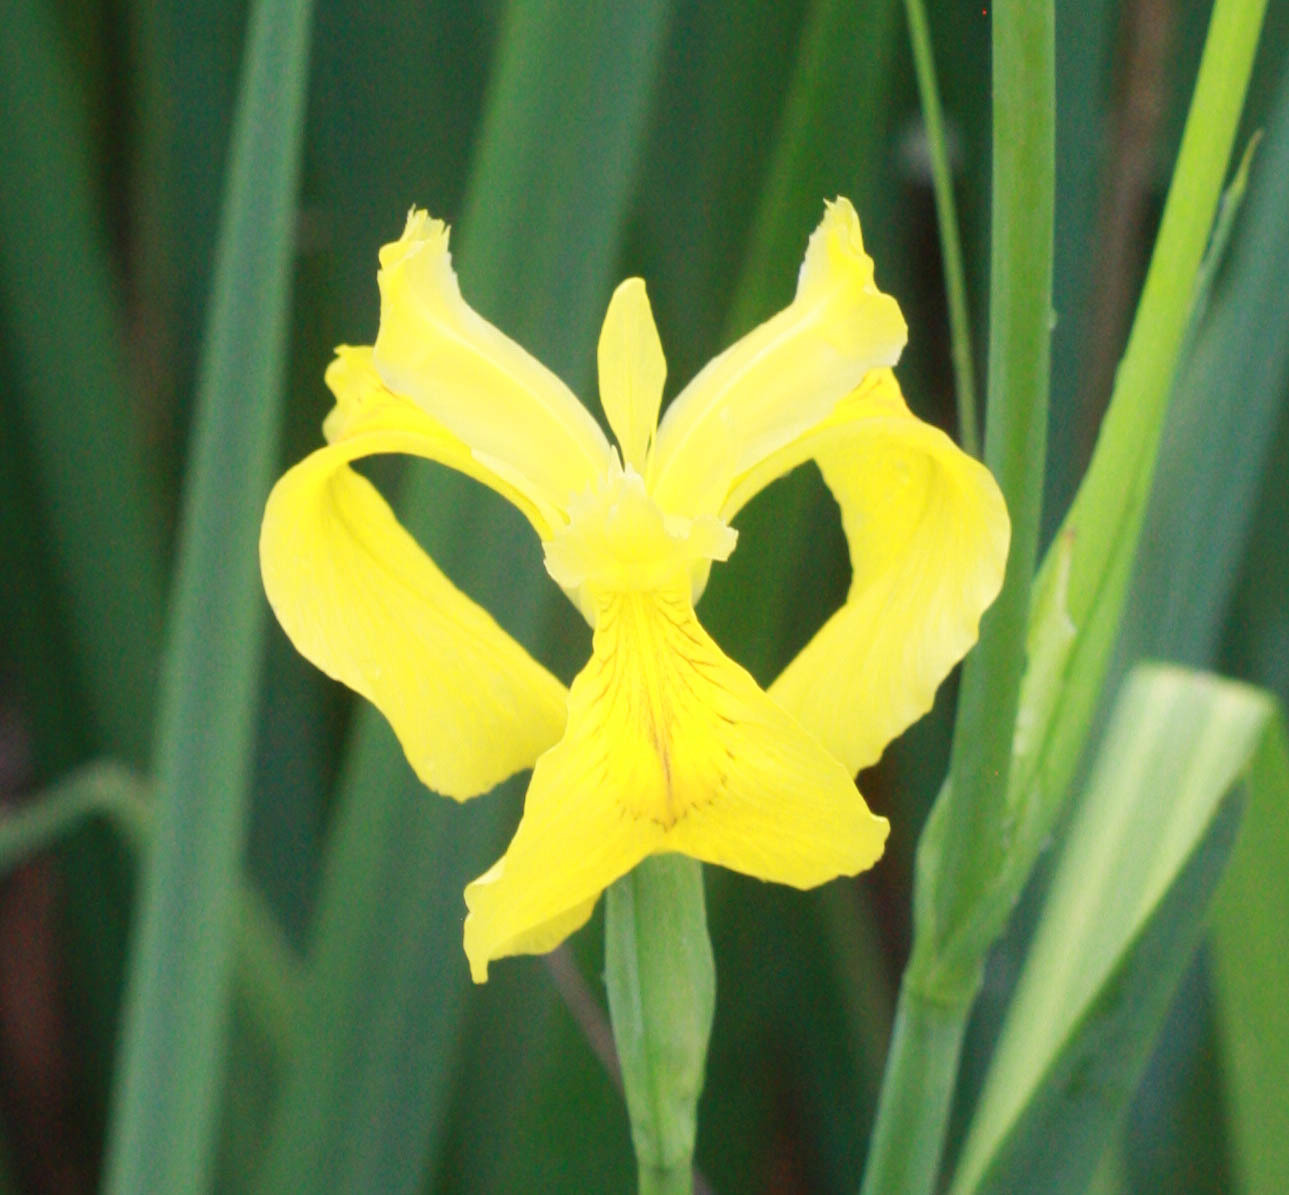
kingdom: Plantae
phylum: Tracheophyta
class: Liliopsida
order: Asparagales
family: Iridaceae
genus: Iris
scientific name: Iris pseudacorus
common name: Yellow flag
